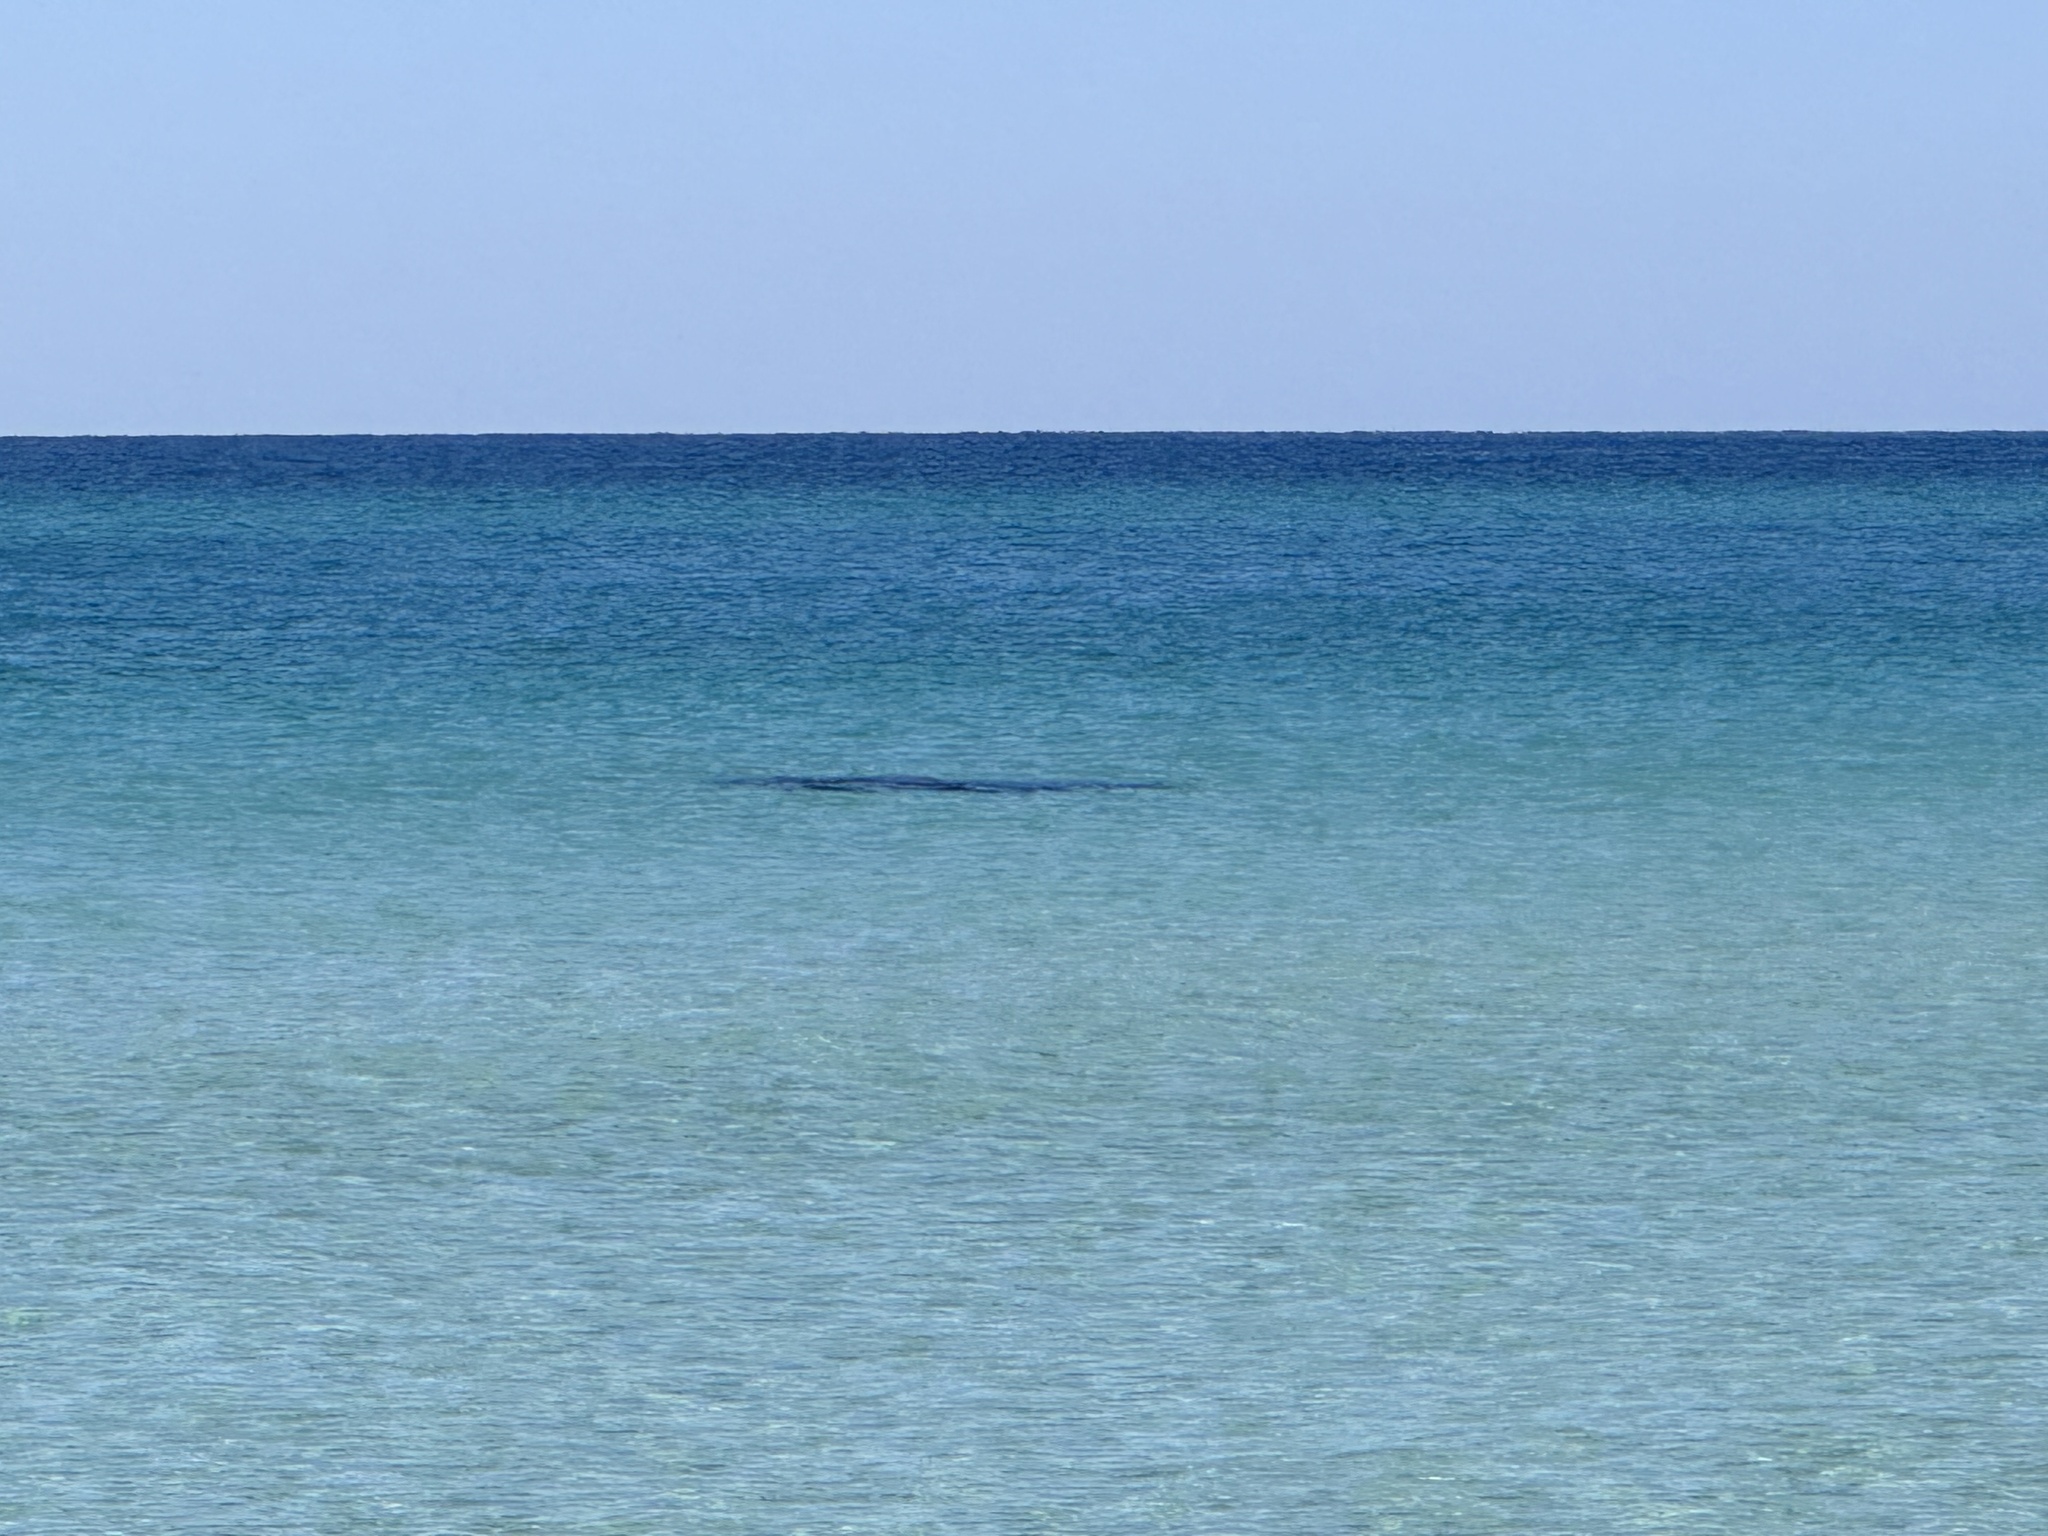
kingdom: Animalia
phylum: Chordata
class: Mammalia
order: Sirenia
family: Trichechidae
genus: Trichechus
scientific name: Trichechus manatus
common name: West indian manatee
